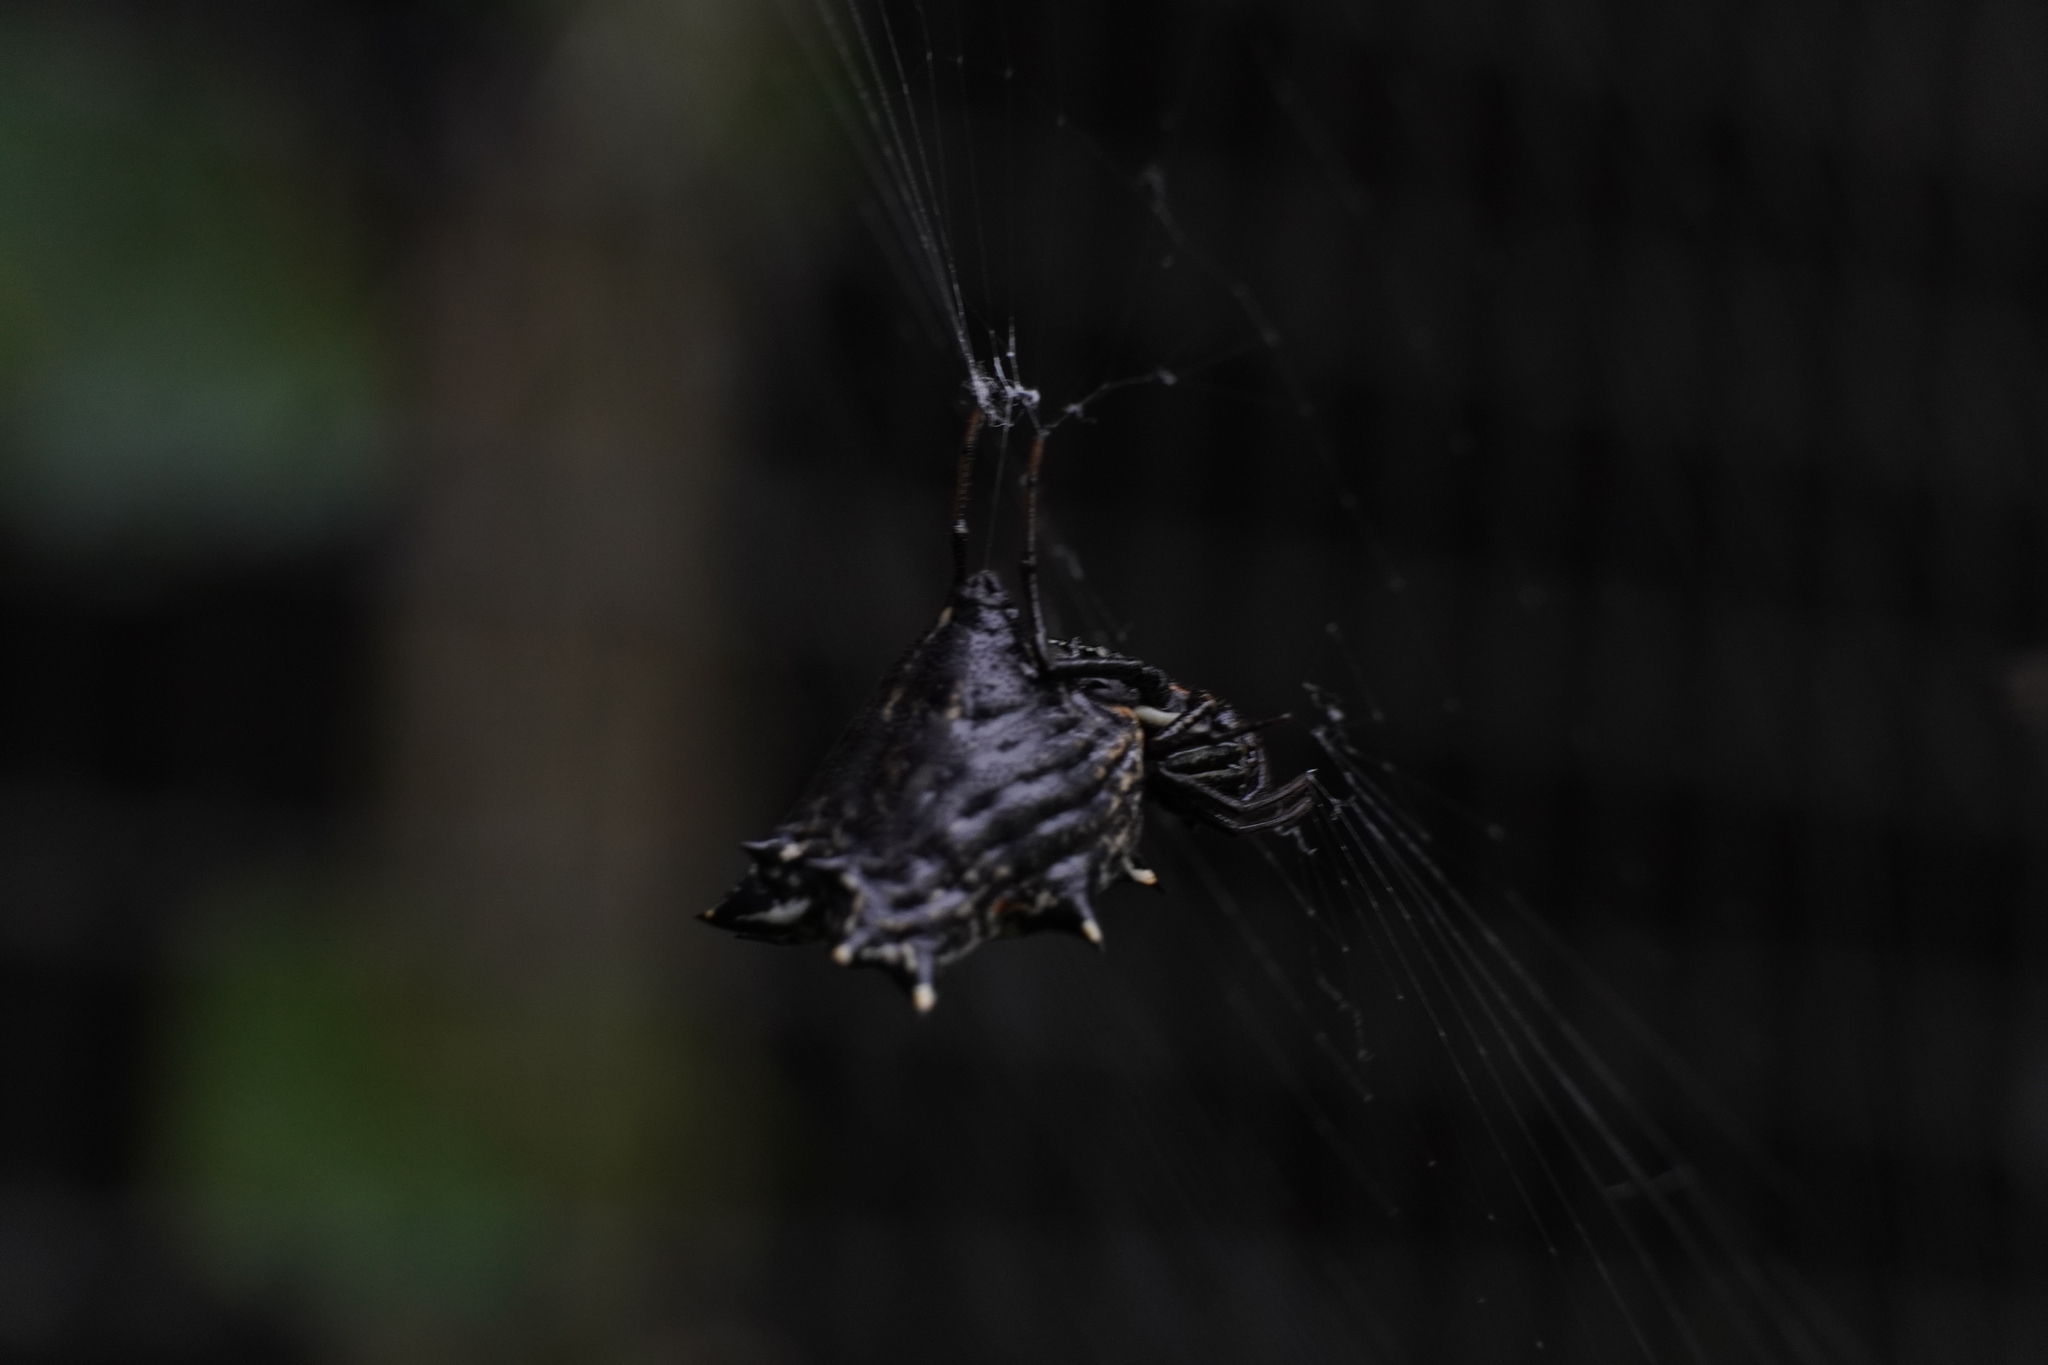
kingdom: Animalia
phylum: Arthropoda
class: Arachnida
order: Araneae
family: Araneidae
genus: Micrathena
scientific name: Micrathena gracilis
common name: Orb weavers
